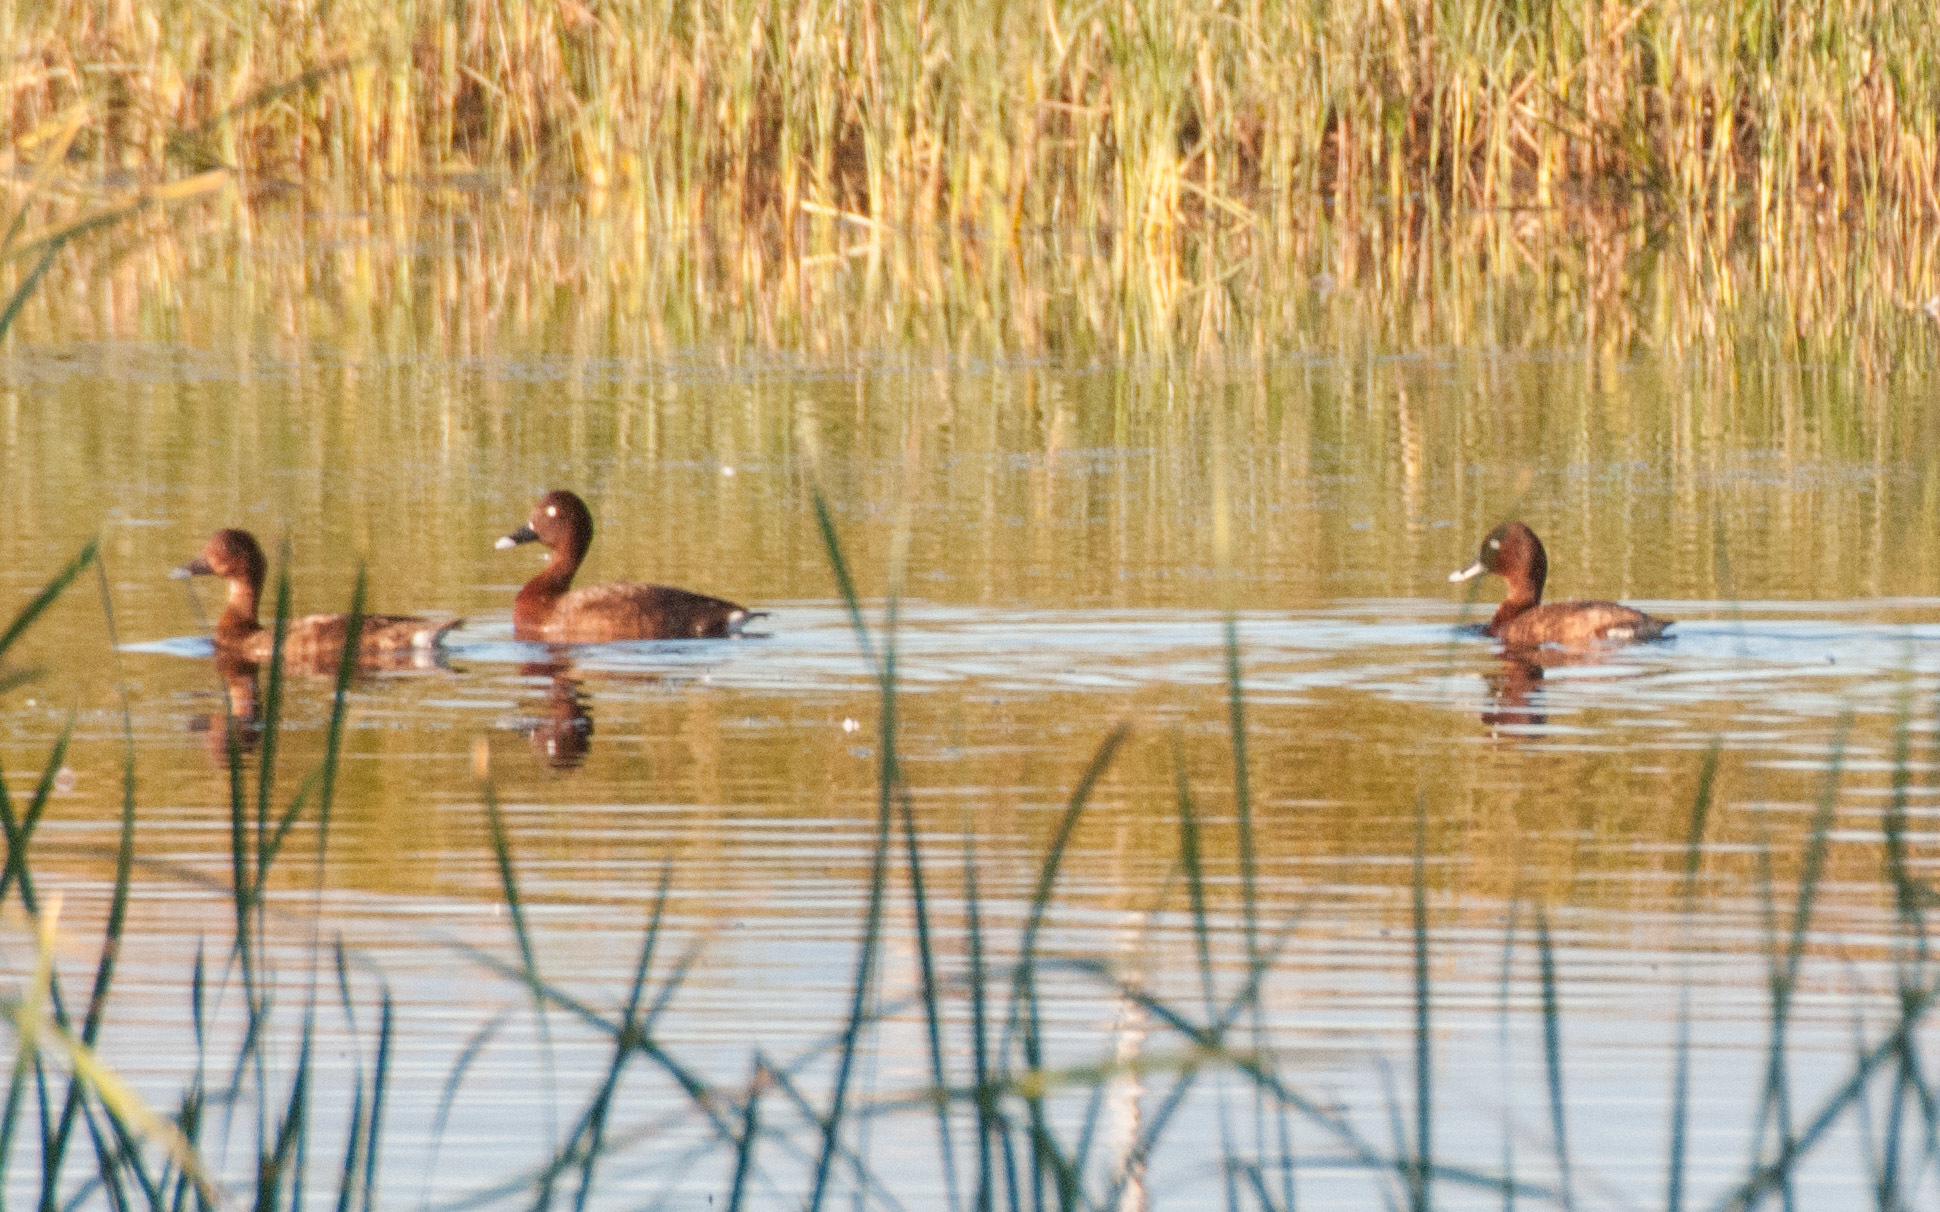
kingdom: Animalia
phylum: Chordata
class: Aves
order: Anseriformes
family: Anatidae
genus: Aythya
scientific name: Aythya australis
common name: Hardhead
